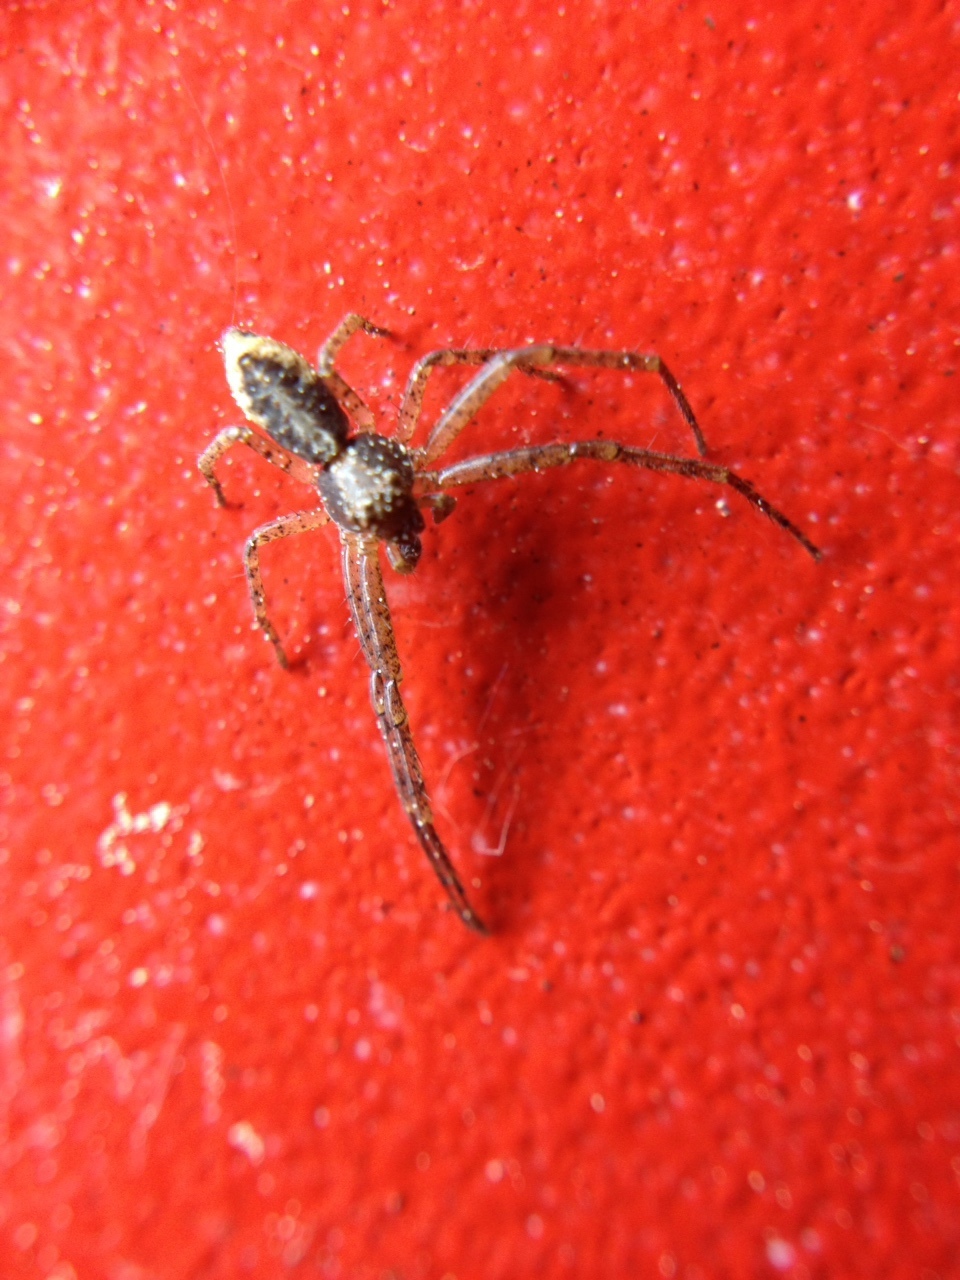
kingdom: Animalia
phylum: Arthropoda
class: Arachnida
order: Araneae
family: Thomisidae
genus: Tmarus
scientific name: Tmarus
